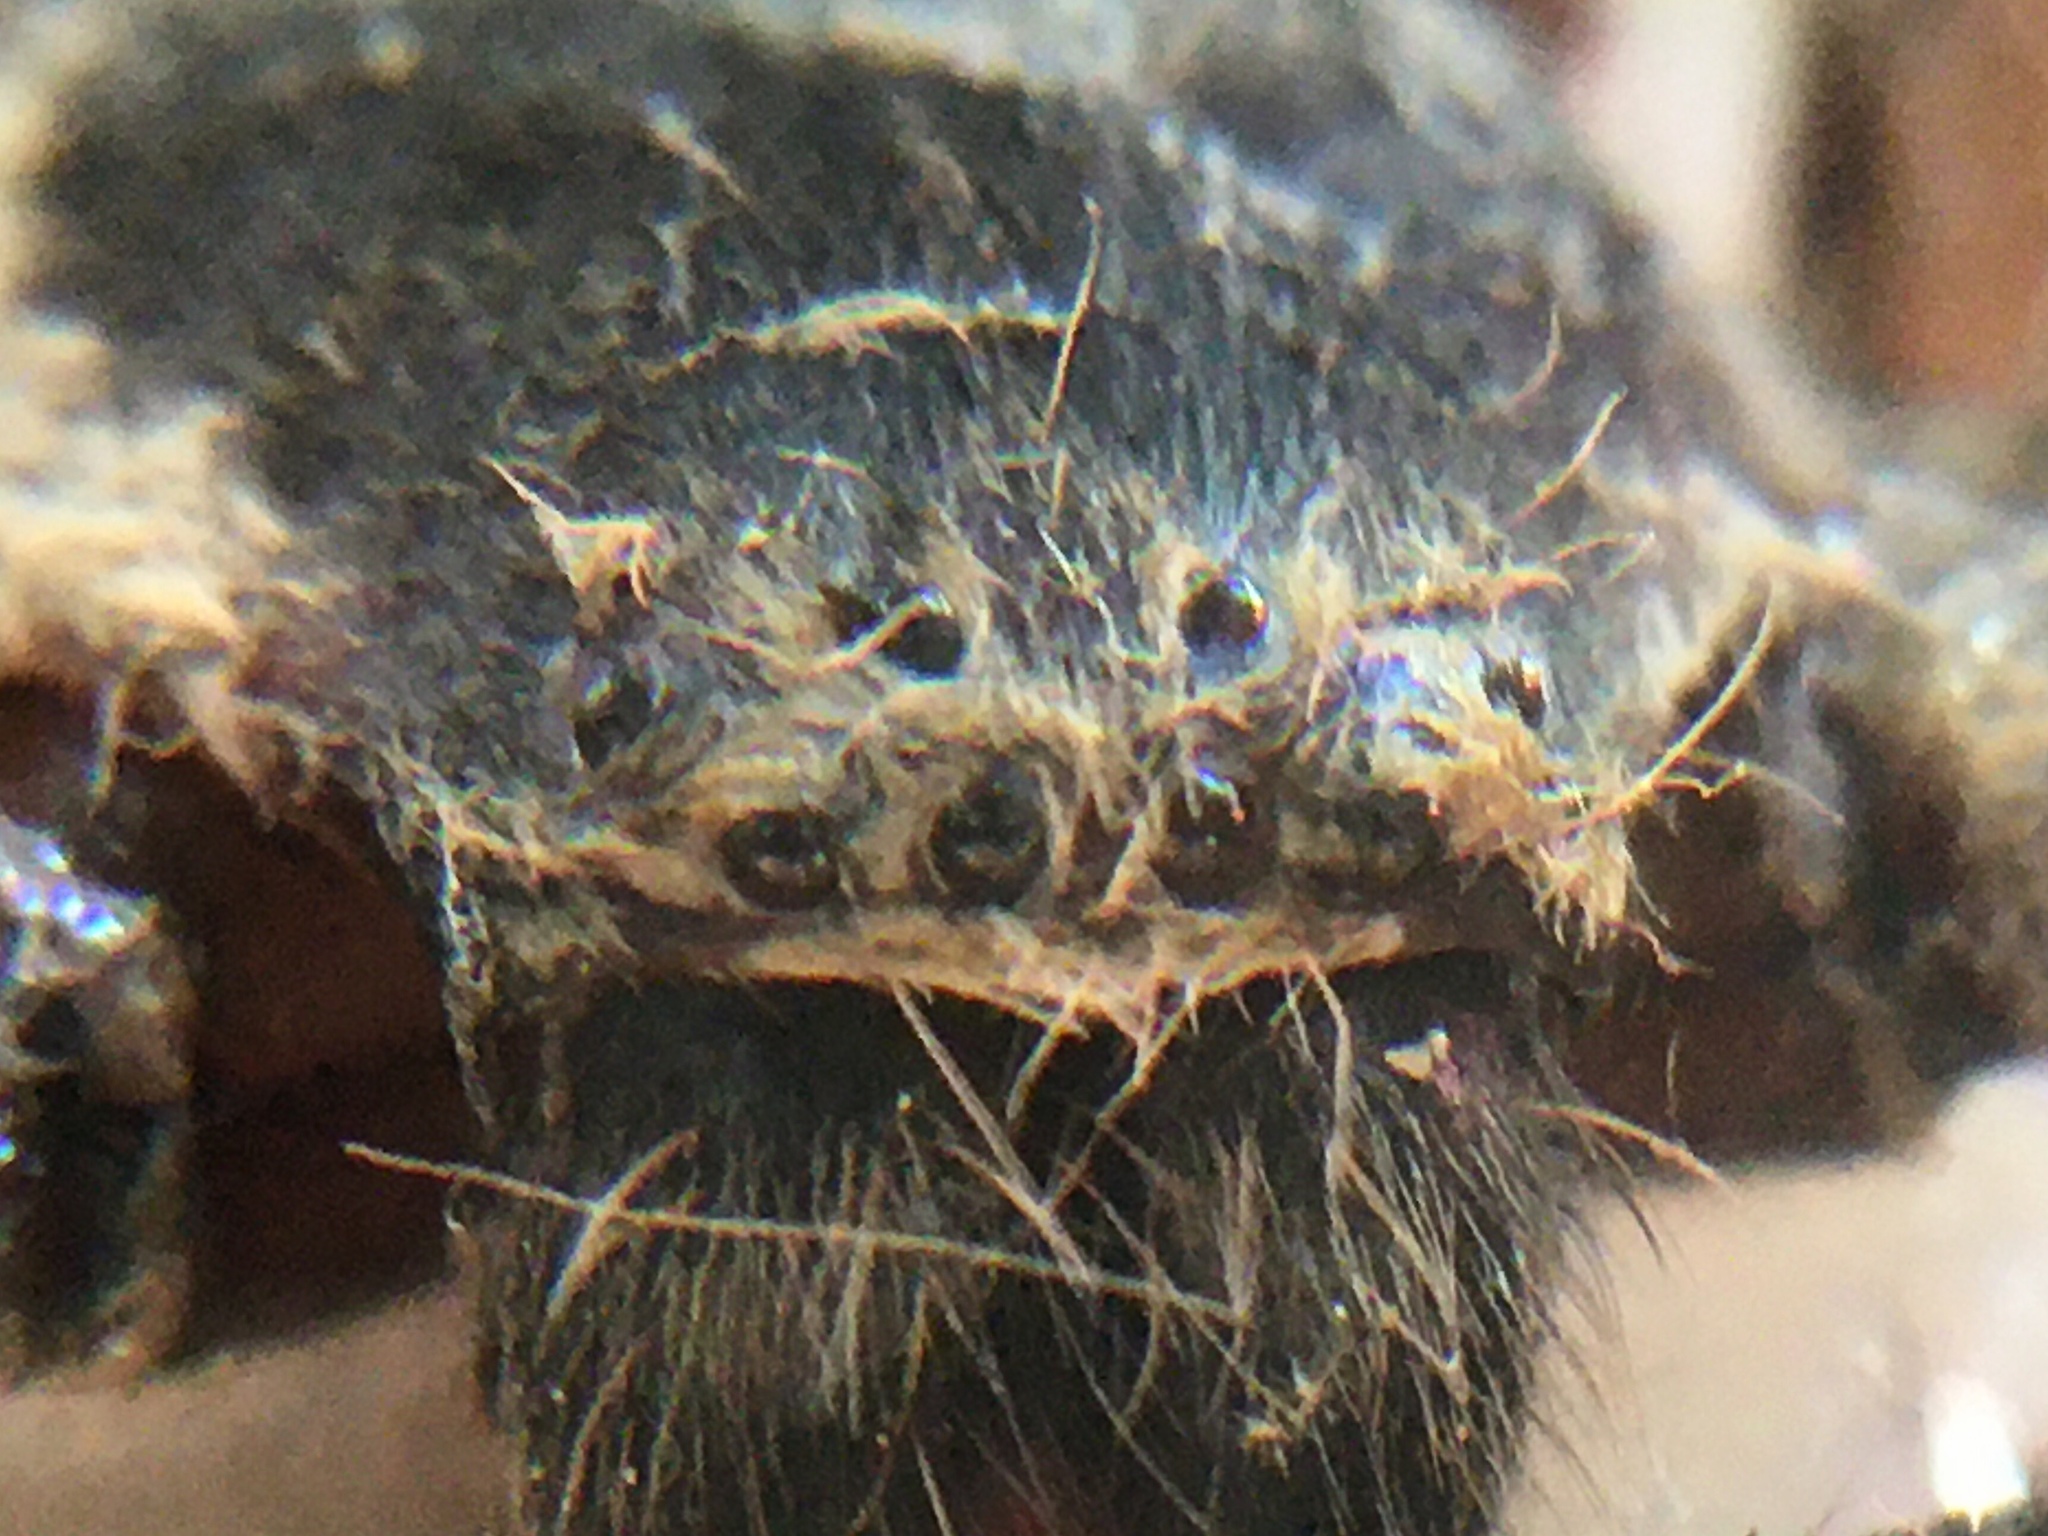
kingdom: Animalia
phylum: Arthropoda
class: Arachnida
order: Araneae
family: Sparassidae
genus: Polybetes
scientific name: Polybetes pythagoricus
